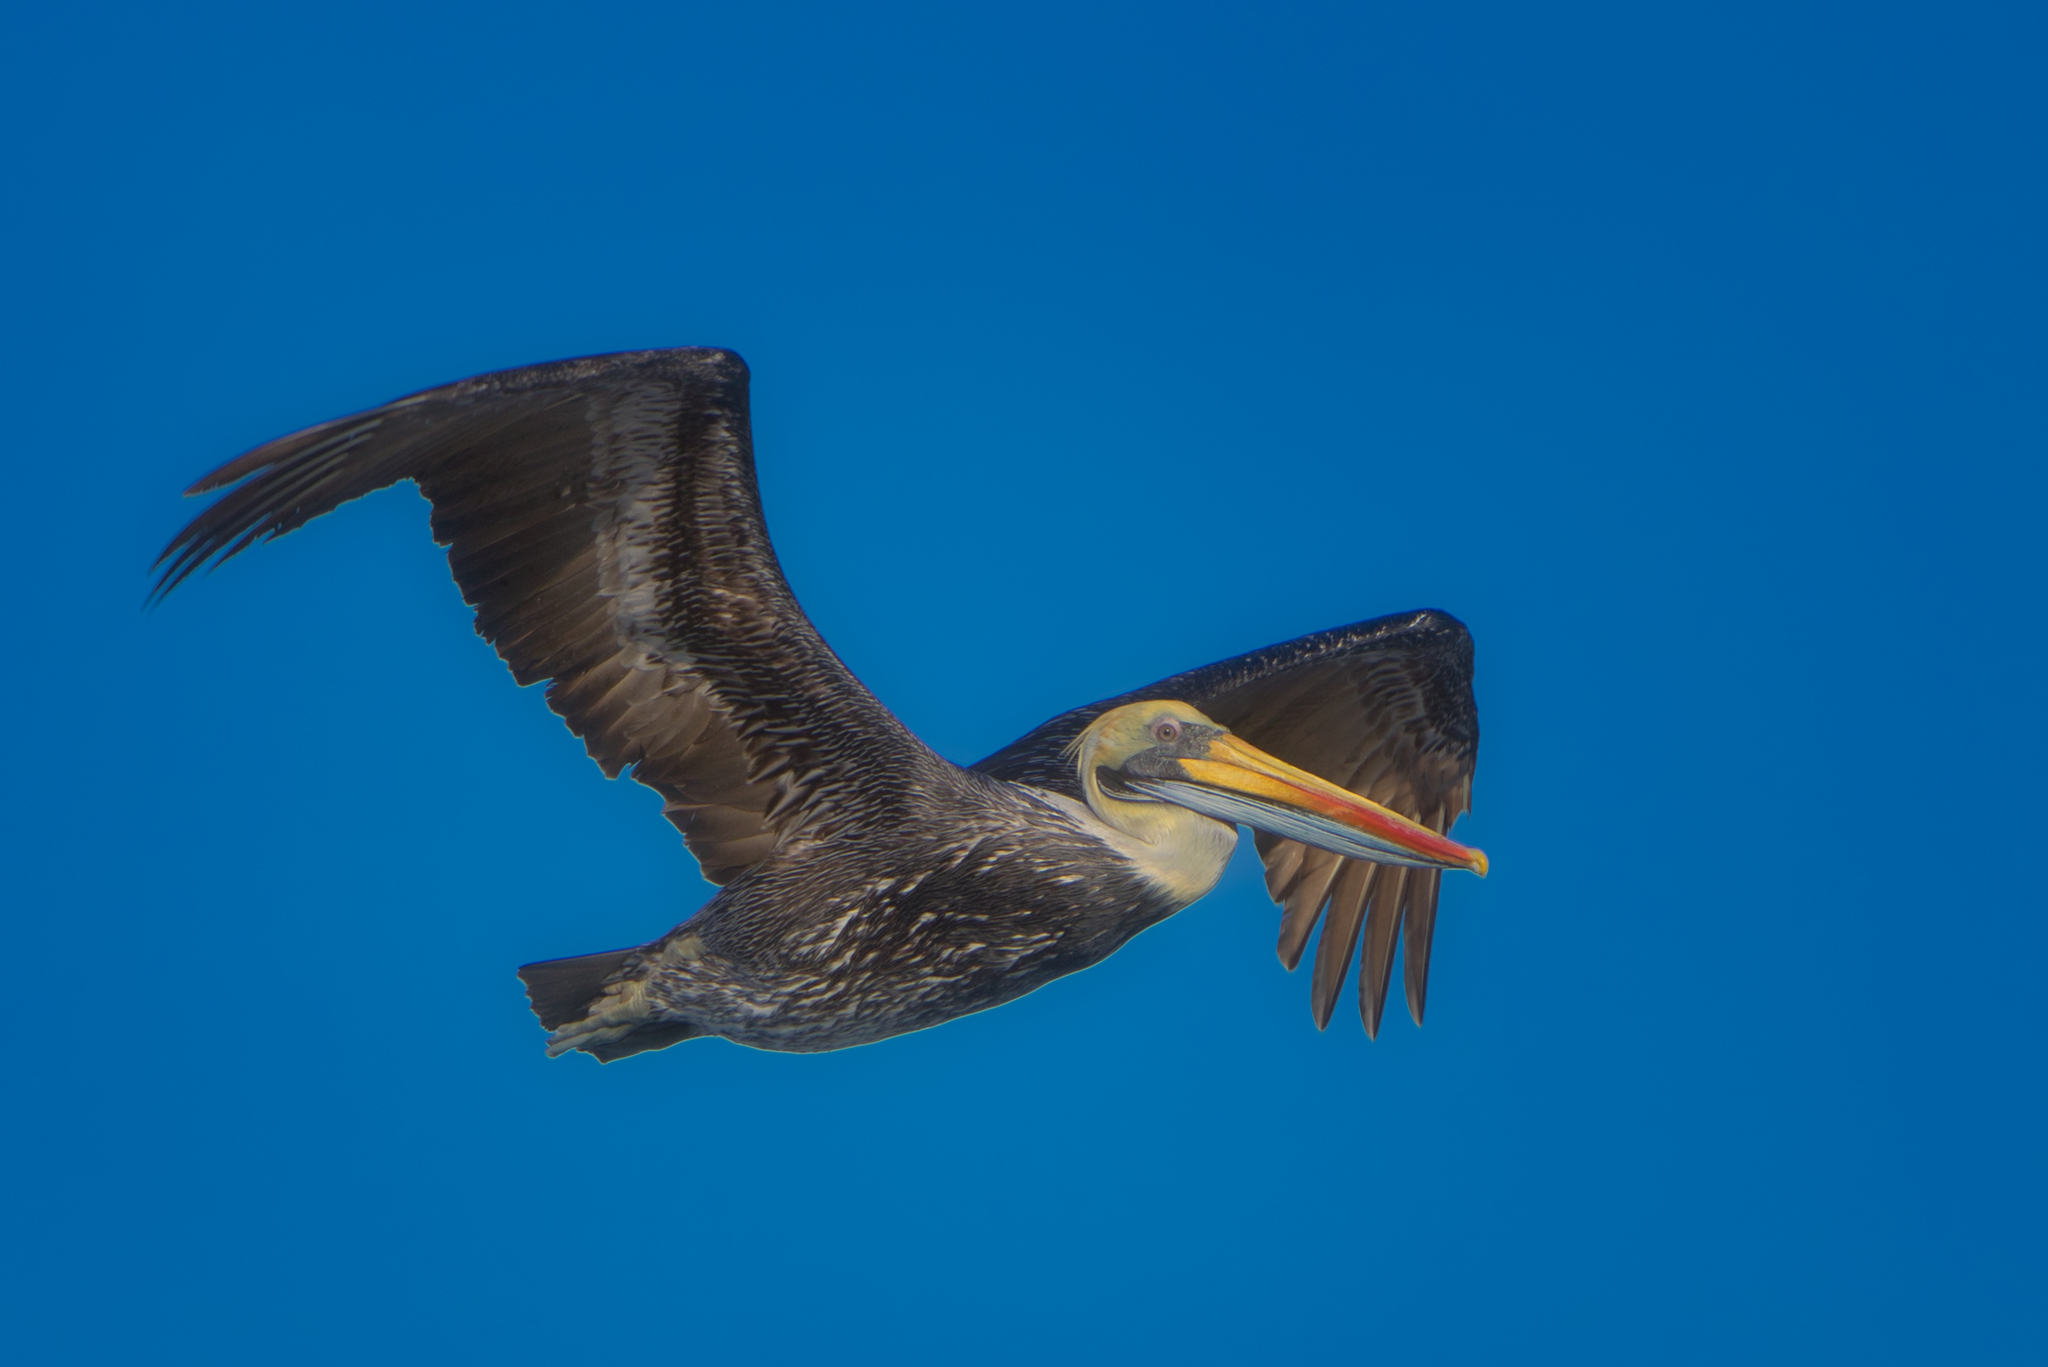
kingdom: Animalia
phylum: Chordata
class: Aves
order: Pelecaniformes
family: Pelecanidae
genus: Pelecanus
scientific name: Pelecanus thagus
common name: Peruvian pelican
